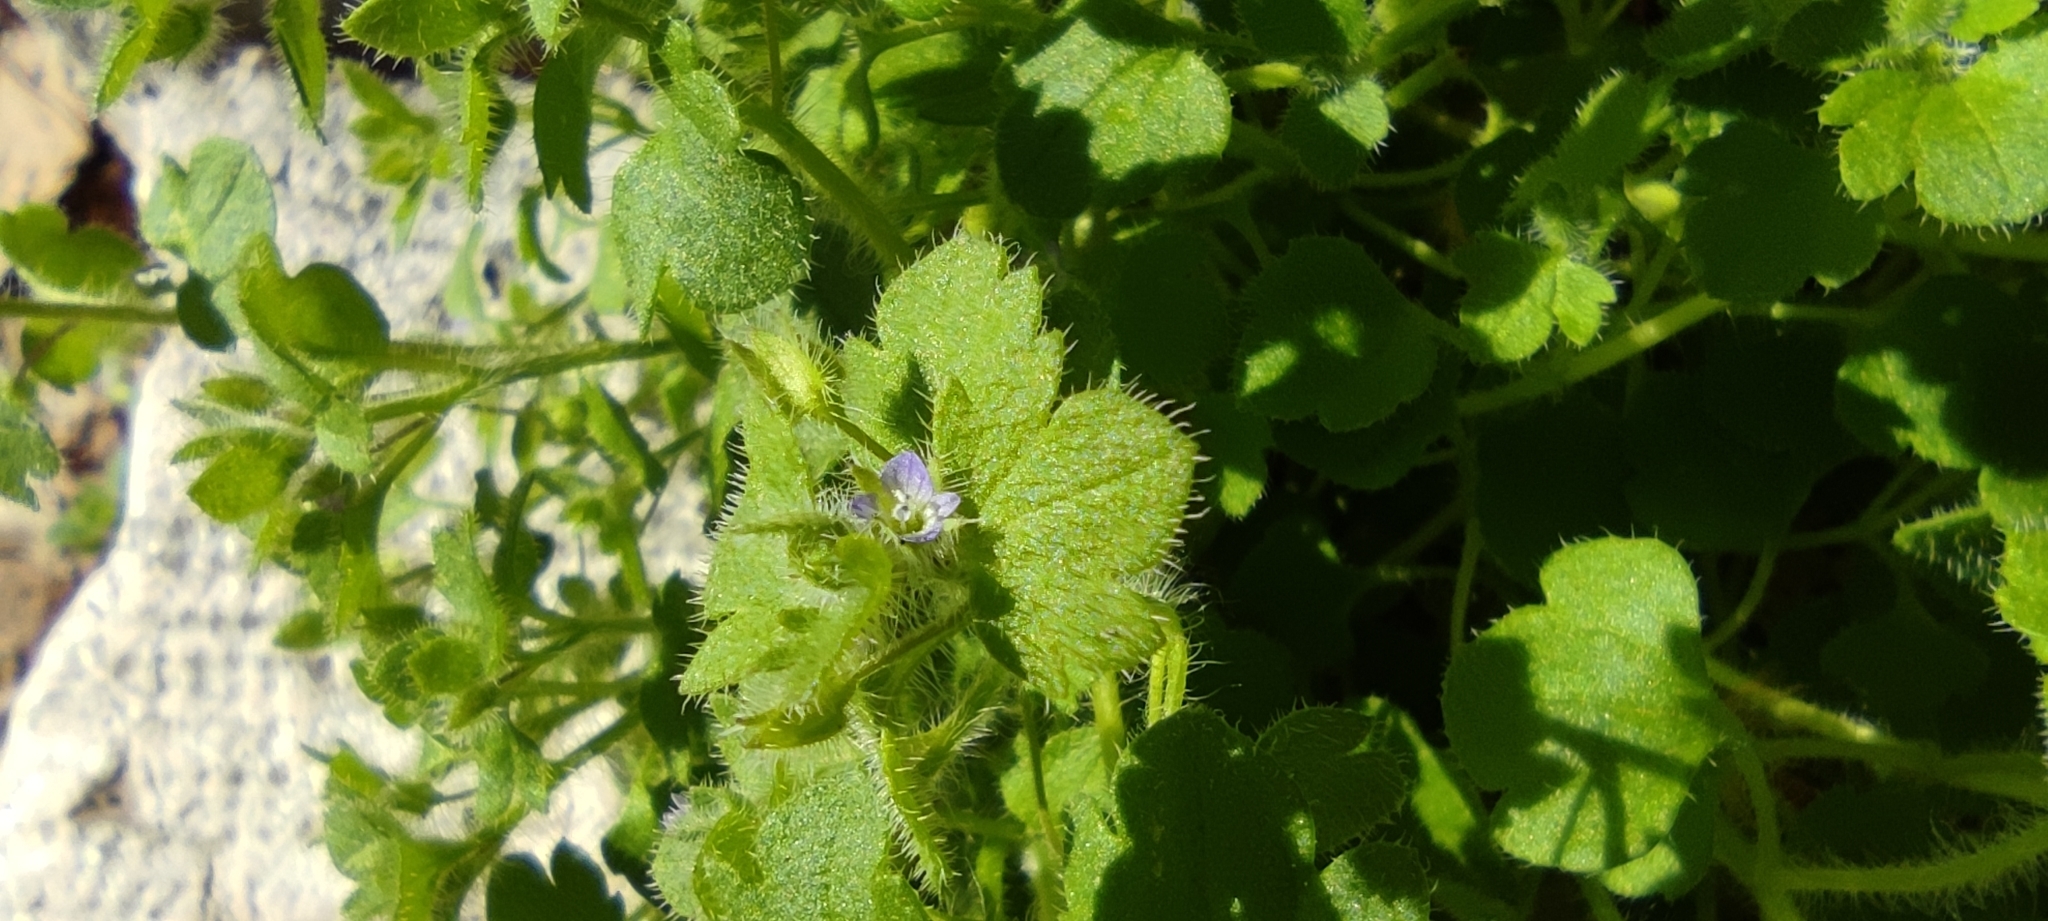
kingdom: Plantae
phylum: Tracheophyta
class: Magnoliopsida
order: Lamiales
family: Plantaginaceae
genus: Veronica
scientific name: Veronica hederifolia
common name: Ivy-leaved speedwell
